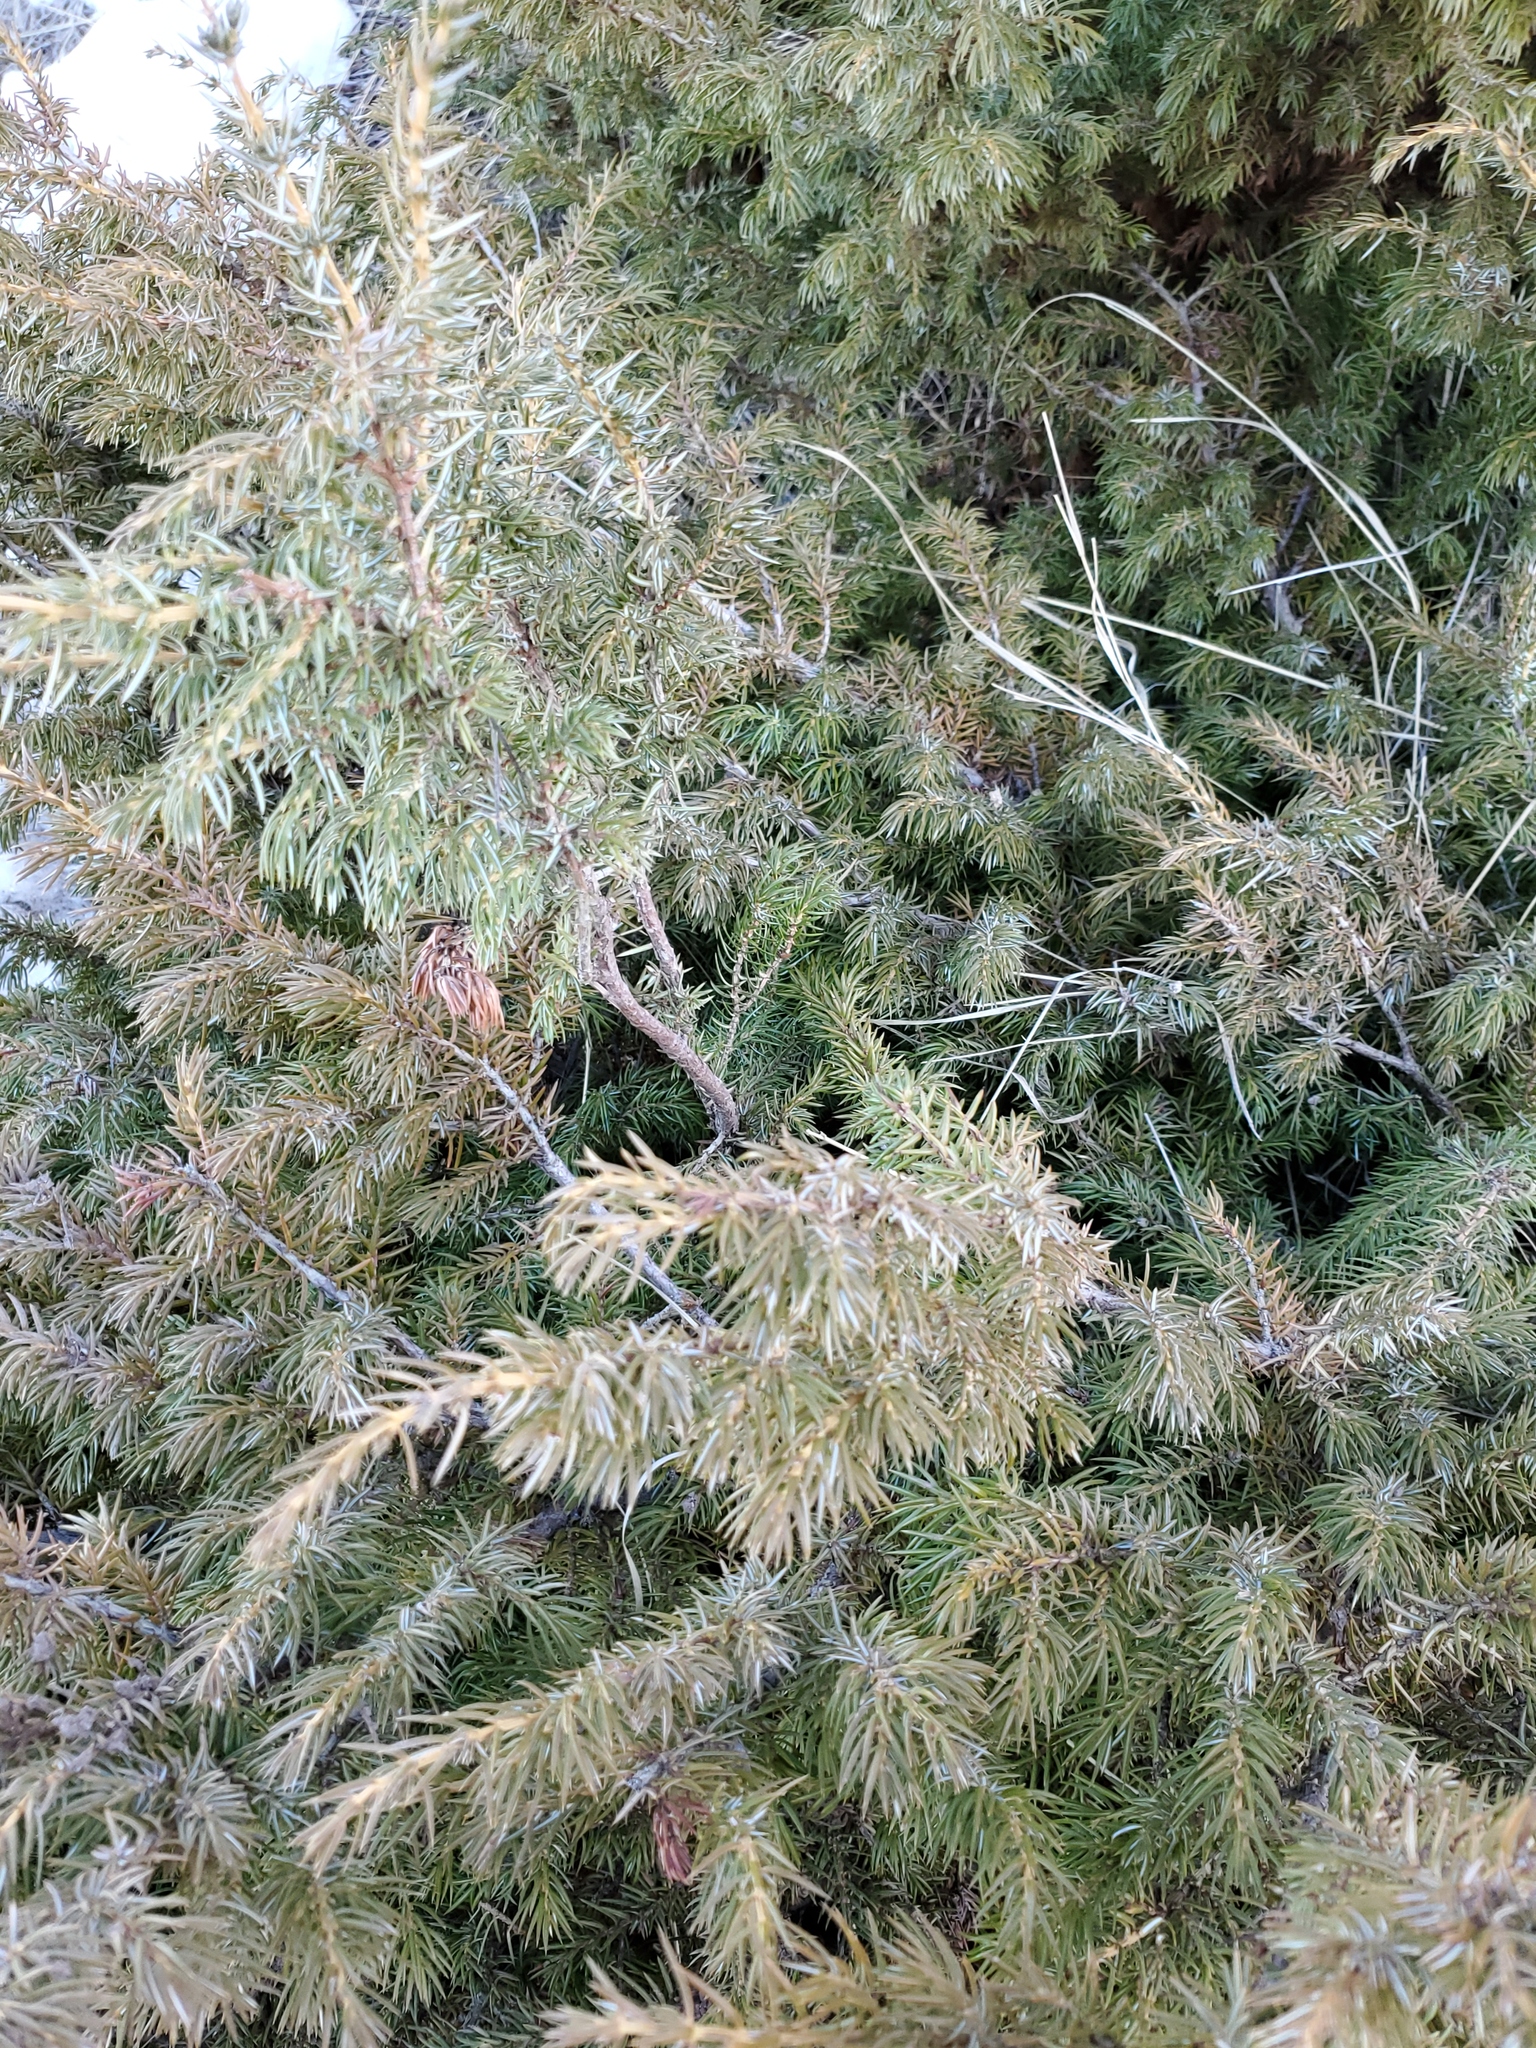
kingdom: Plantae
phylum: Tracheophyta
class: Pinopsida
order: Pinales
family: Cupressaceae
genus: Juniperus
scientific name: Juniperus communis
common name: Common juniper
